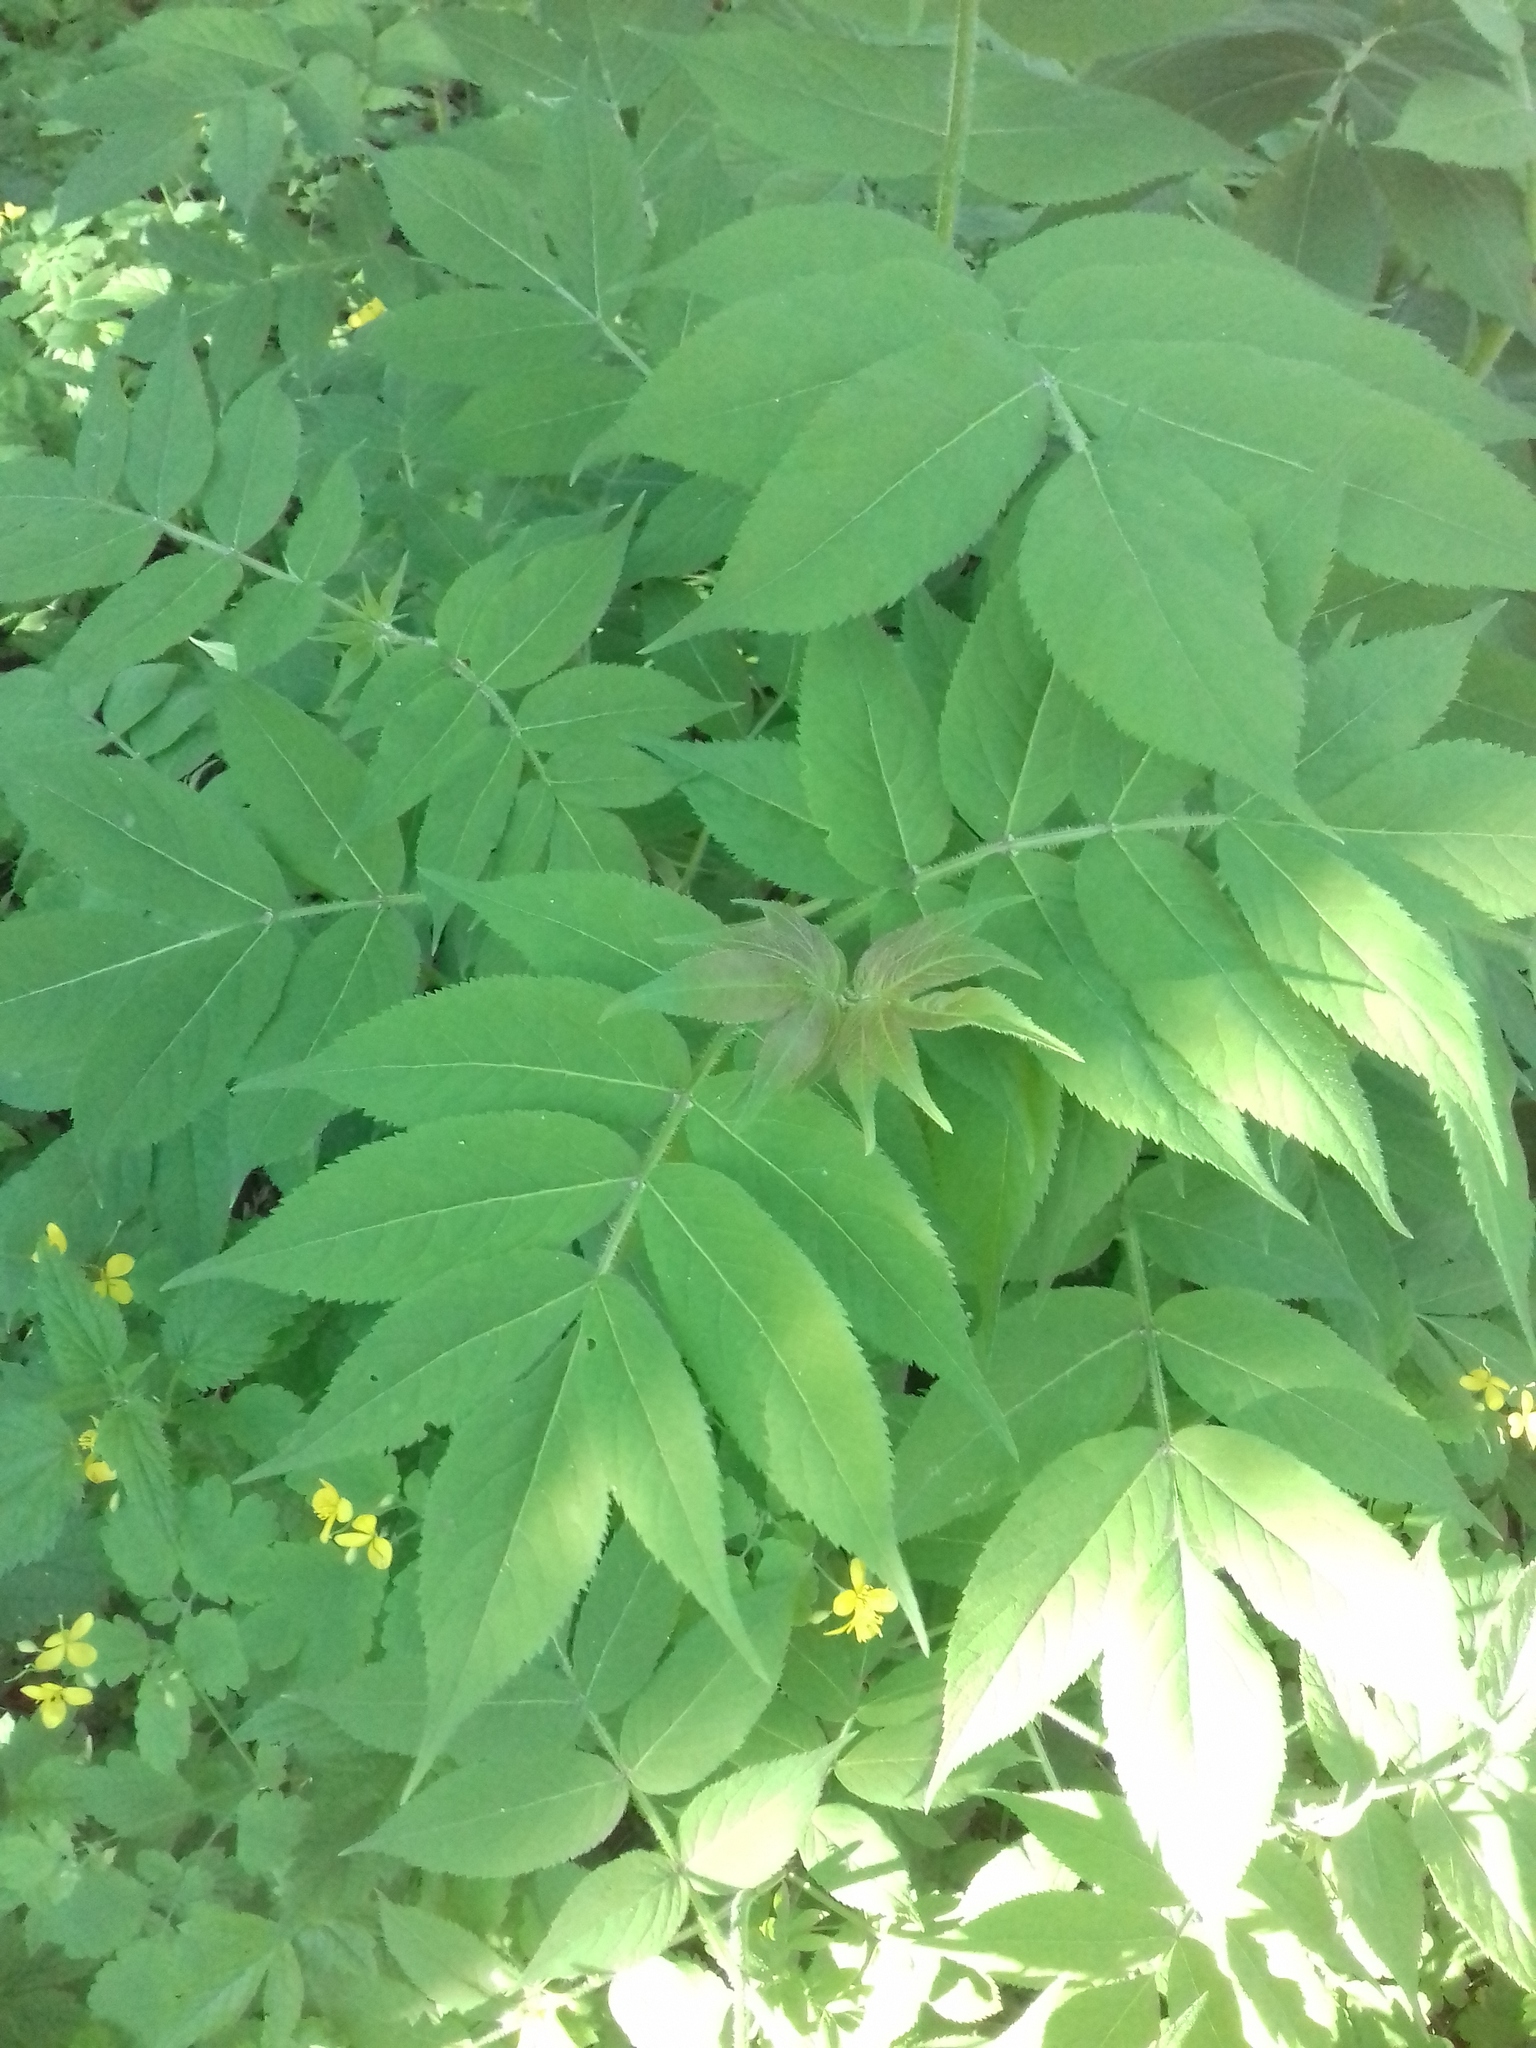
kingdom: Plantae
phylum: Tracheophyta
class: Magnoliopsida
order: Dipsacales
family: Viburnaceae
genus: Sambucus
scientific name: Sambucus sibirica
